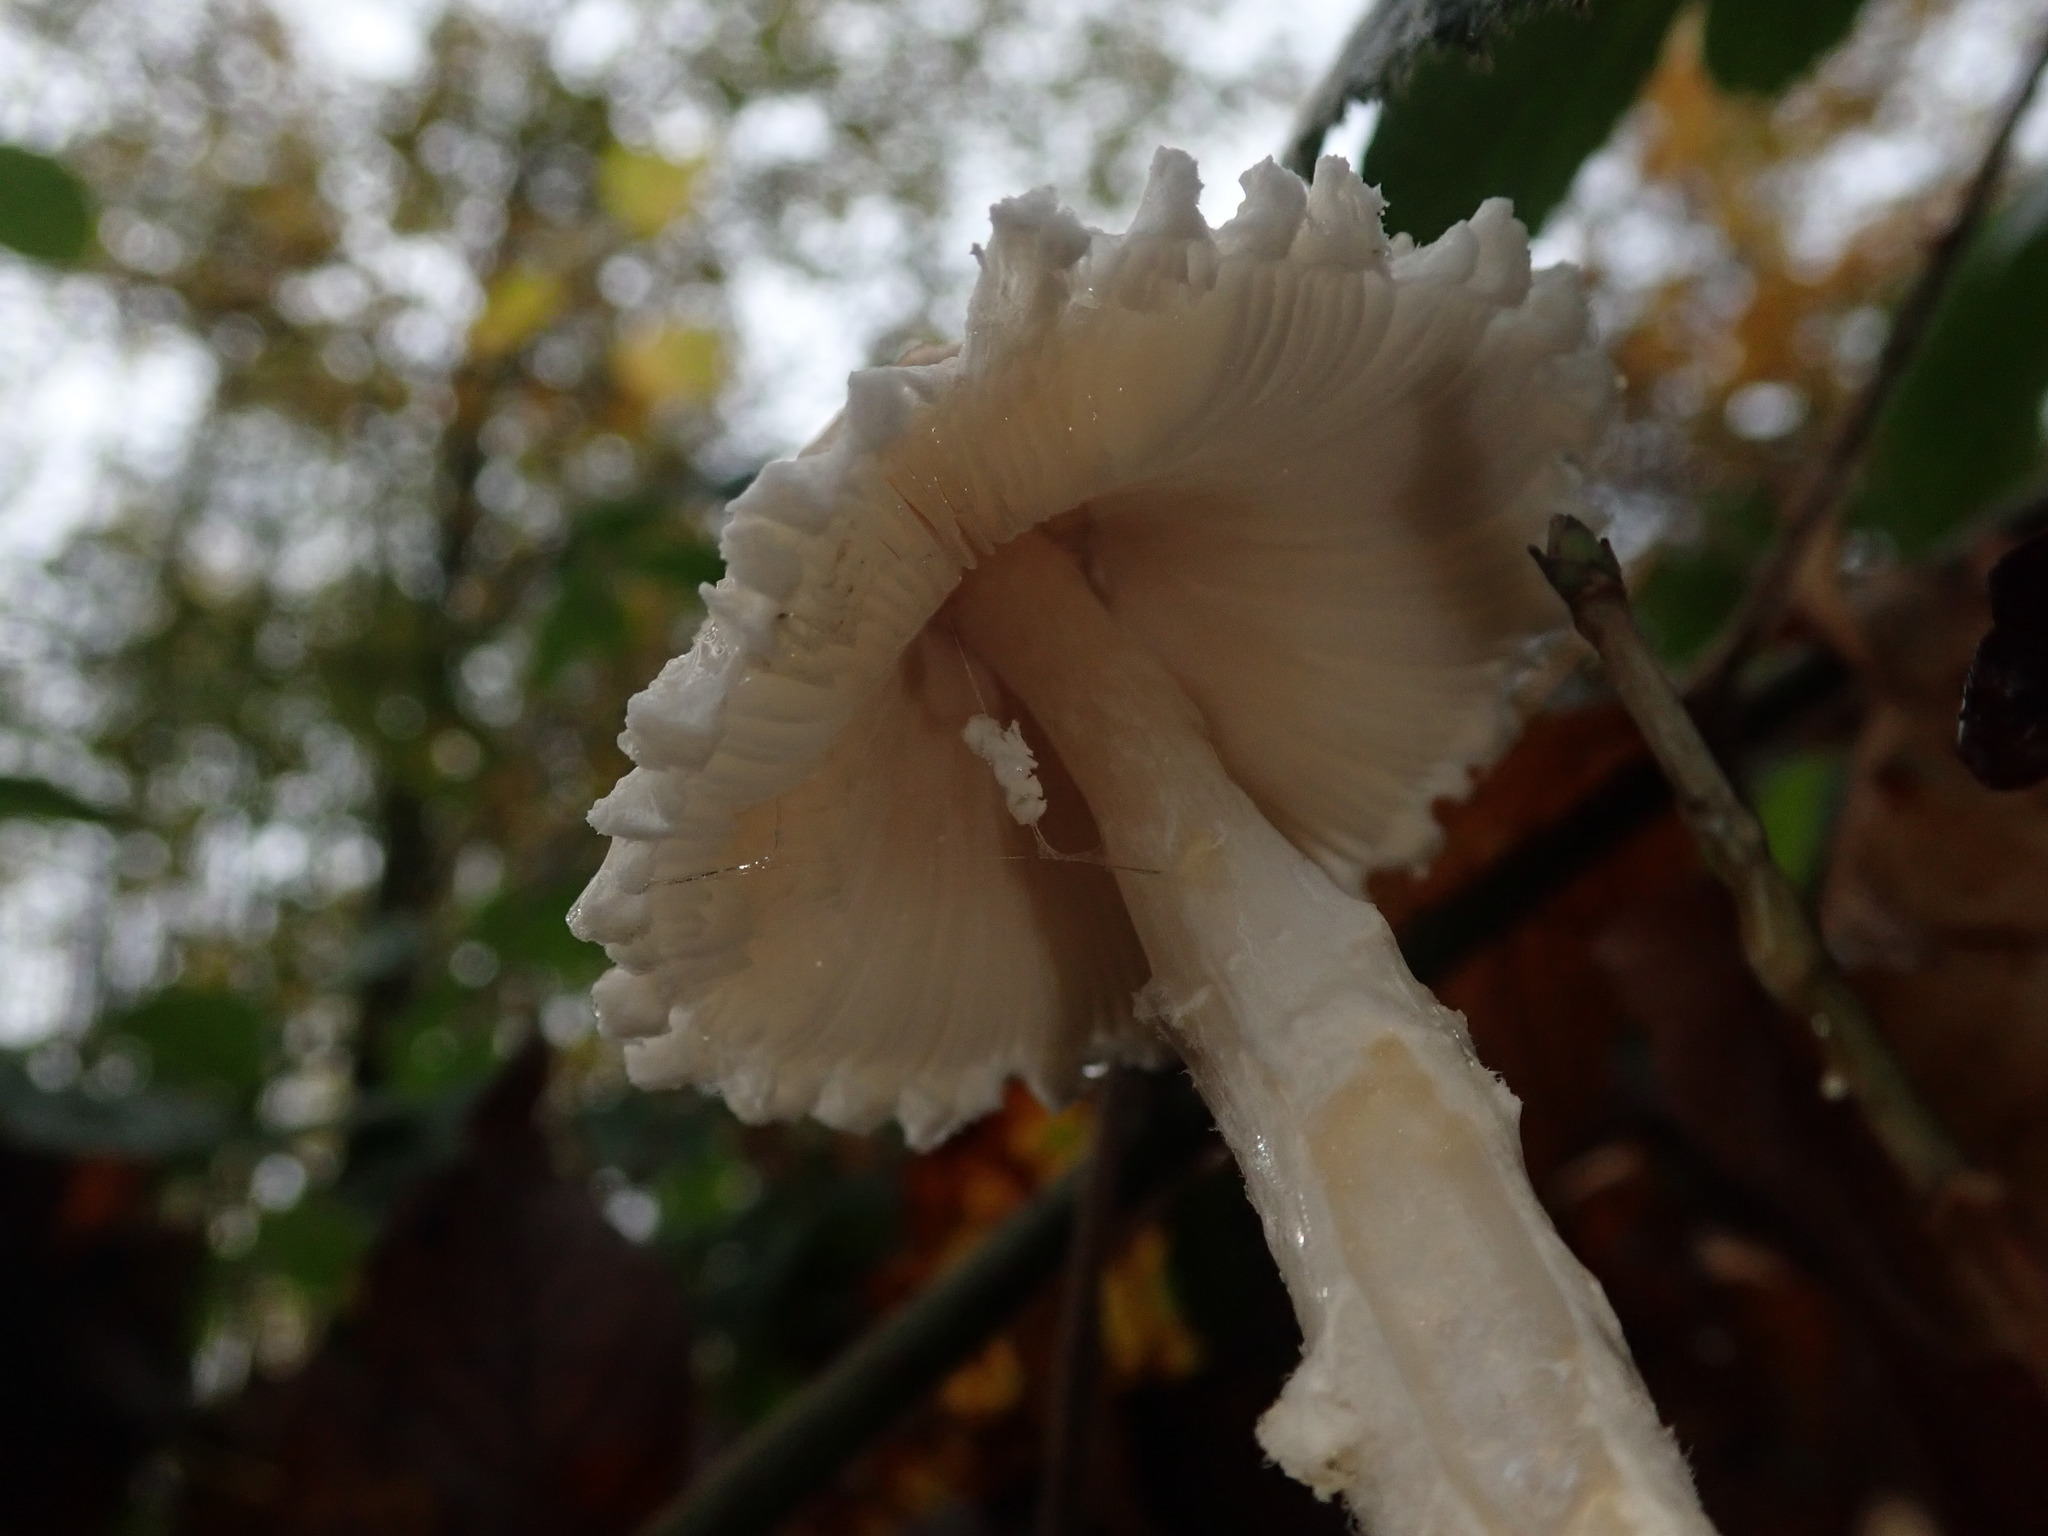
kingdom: Fungi
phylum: Basidiomycota
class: Agaricomycetes
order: Agaricales
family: Agaricaceae
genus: Lepiota
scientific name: Lepiota clypeolaria
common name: Shield dapperling
